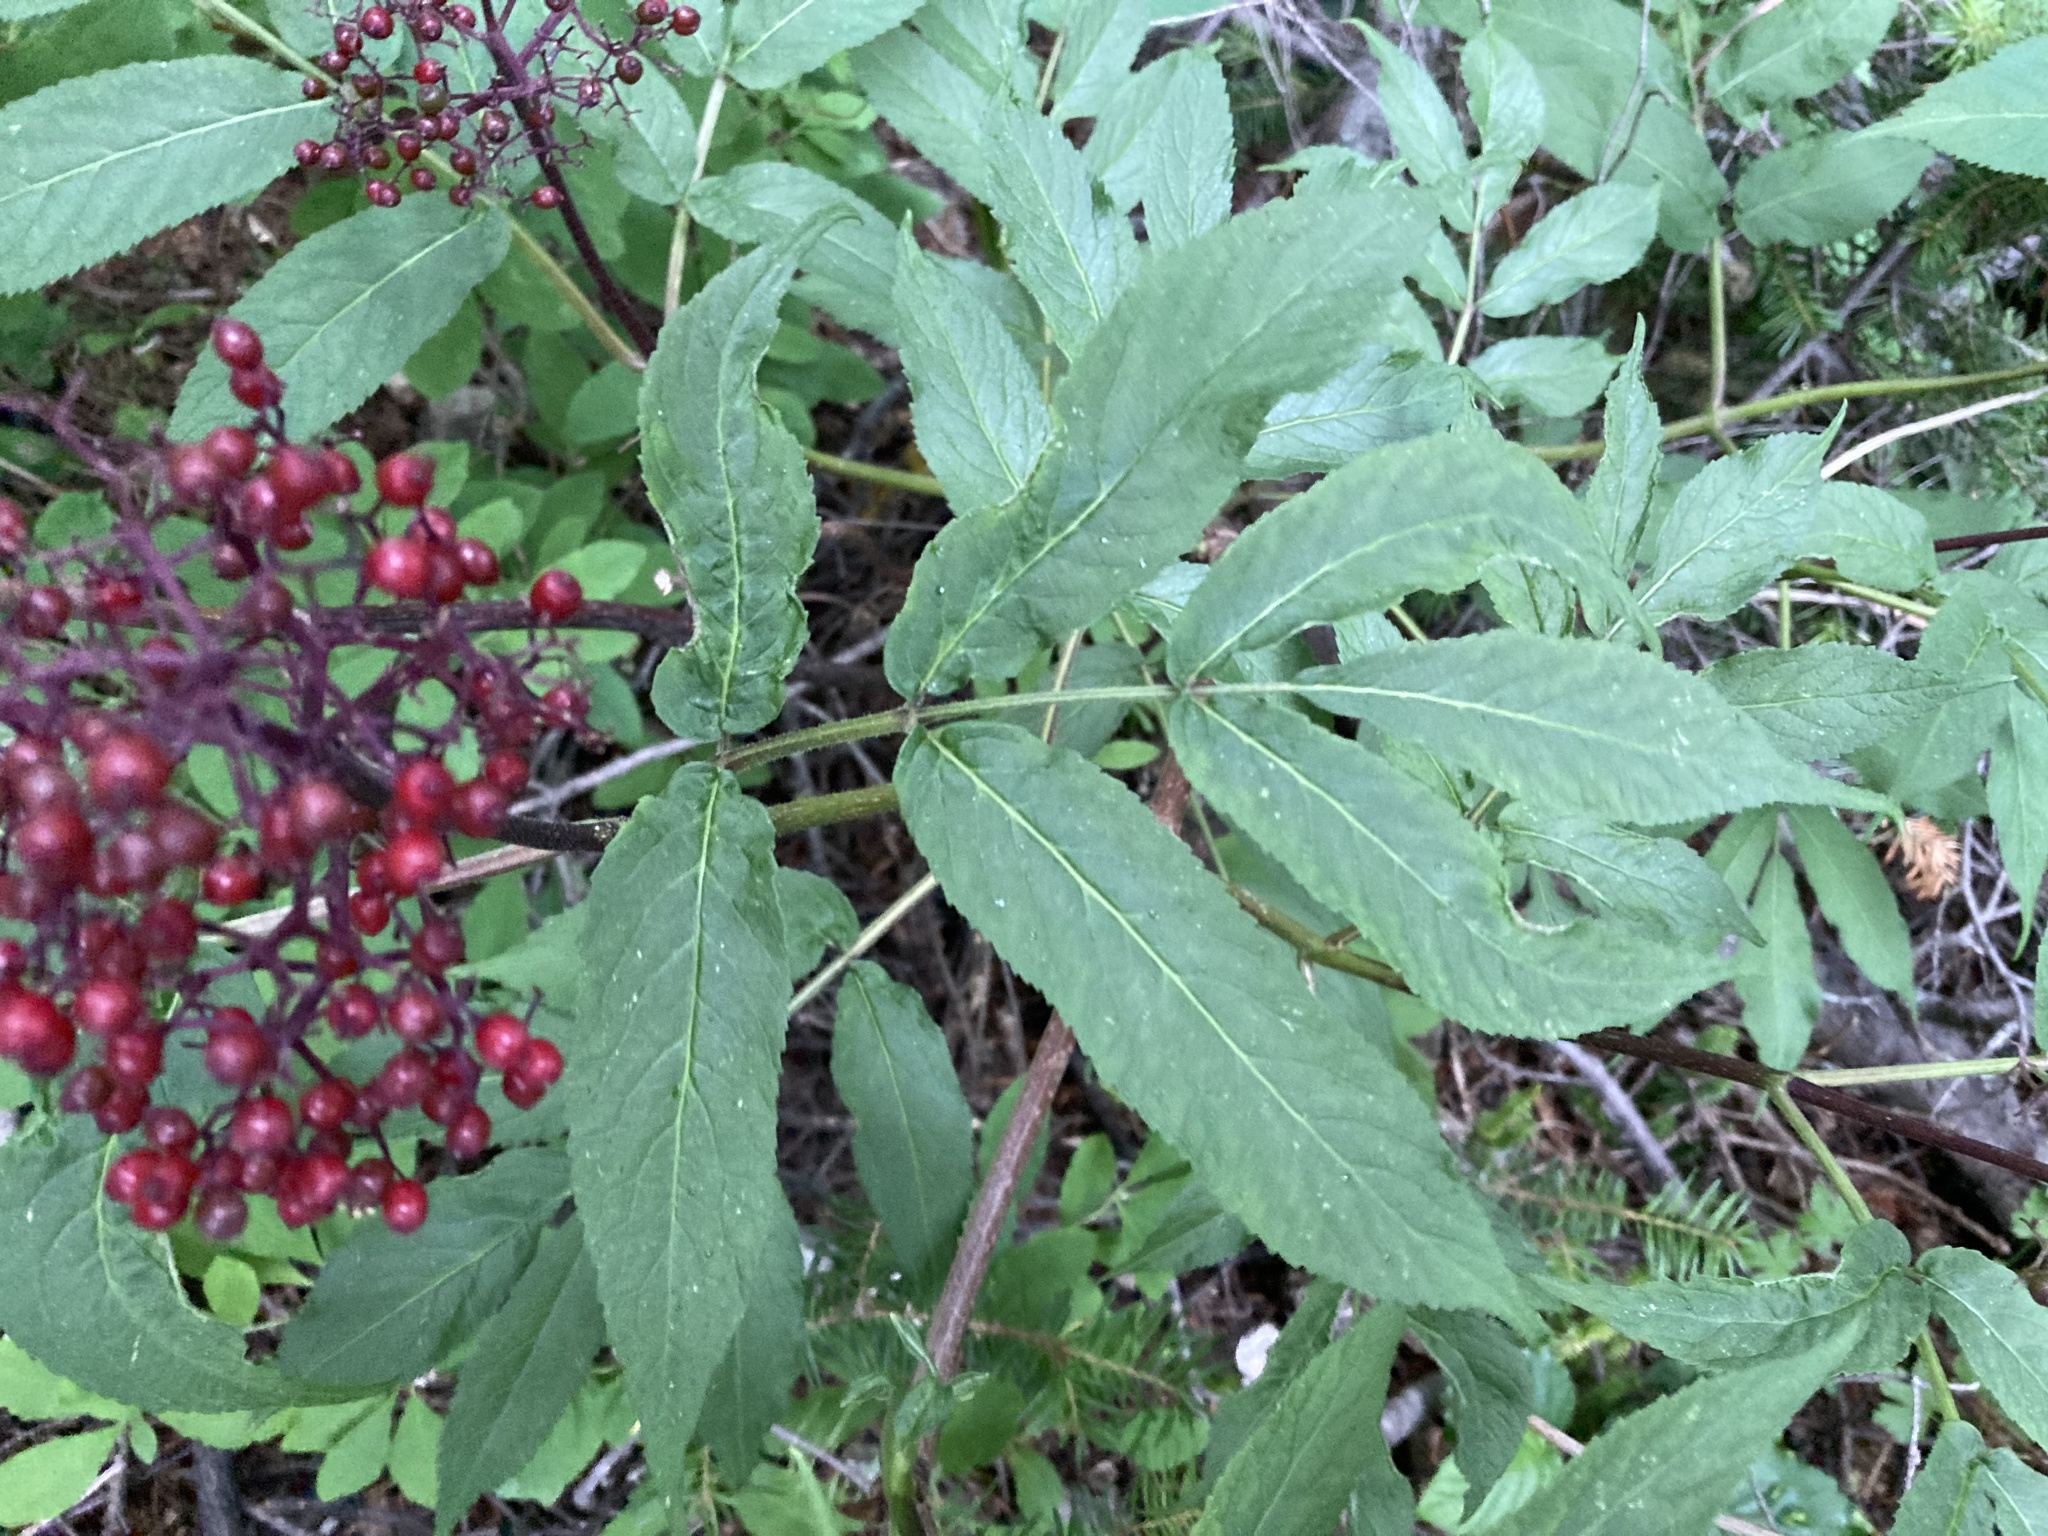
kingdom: Plantae
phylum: Tracheophyta
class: Magnoliopsida
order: Dipsacales
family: Viburnaceae
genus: Sambucus
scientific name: Sambucus racemosa
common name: Red-berried elder
